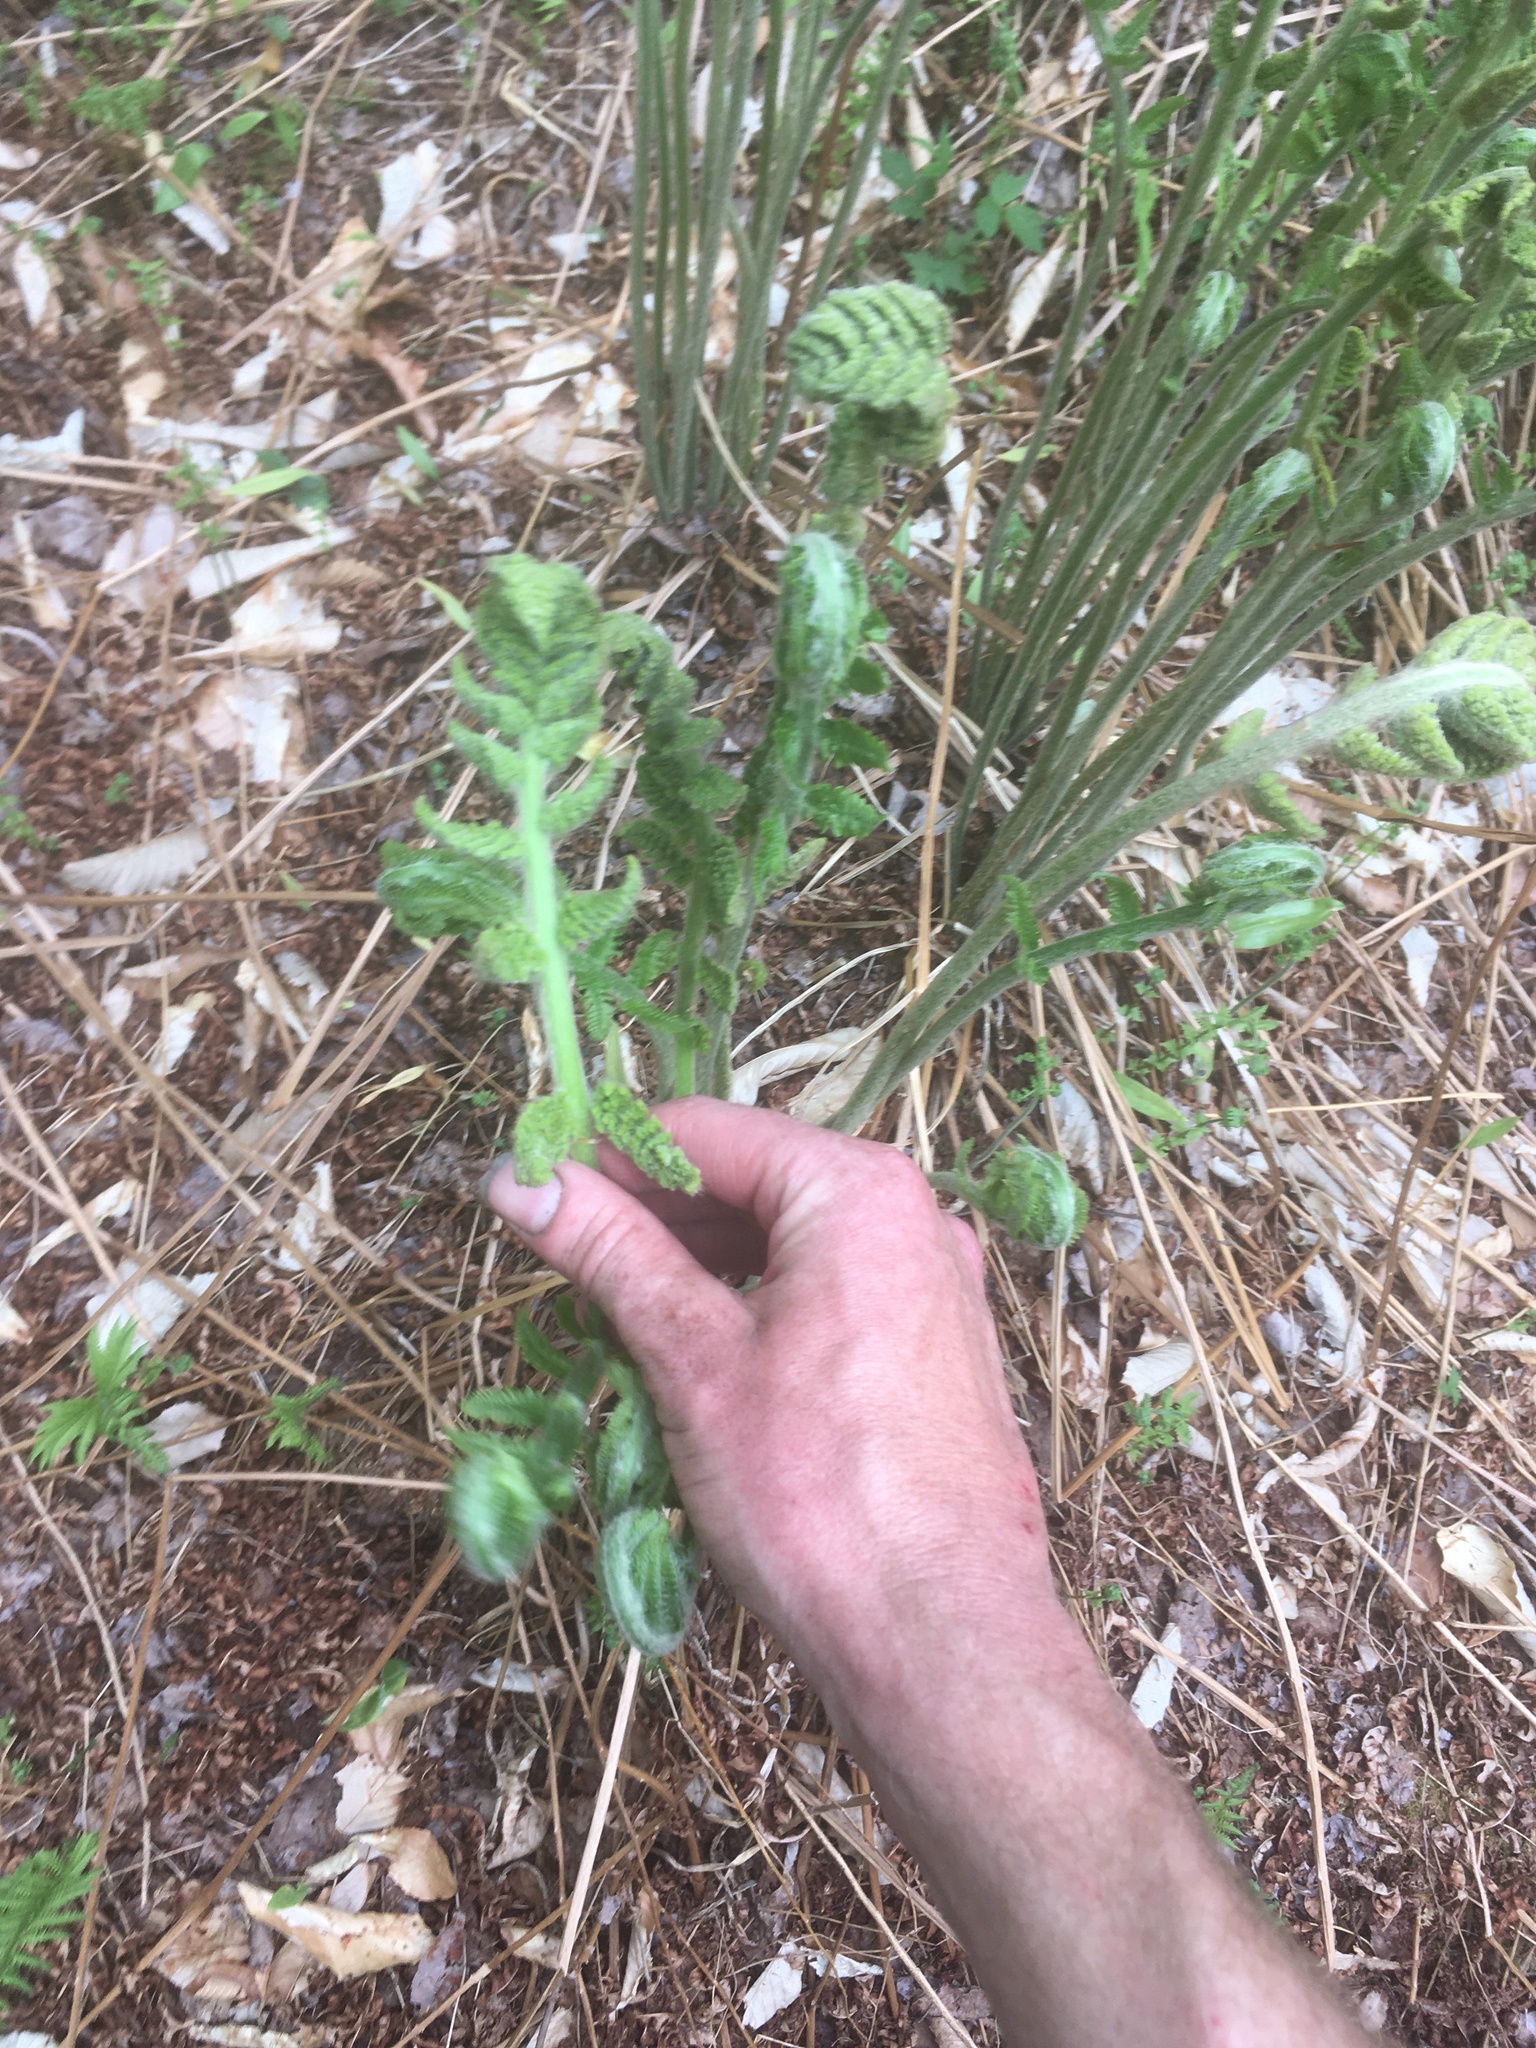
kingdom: Plantae
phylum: Tracheophyta
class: Polypodiopsida
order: Osmundales
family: Osmundaceae
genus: Osmundastrum
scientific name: Osmundastrum cinnamomeum
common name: Cinnamon fern
